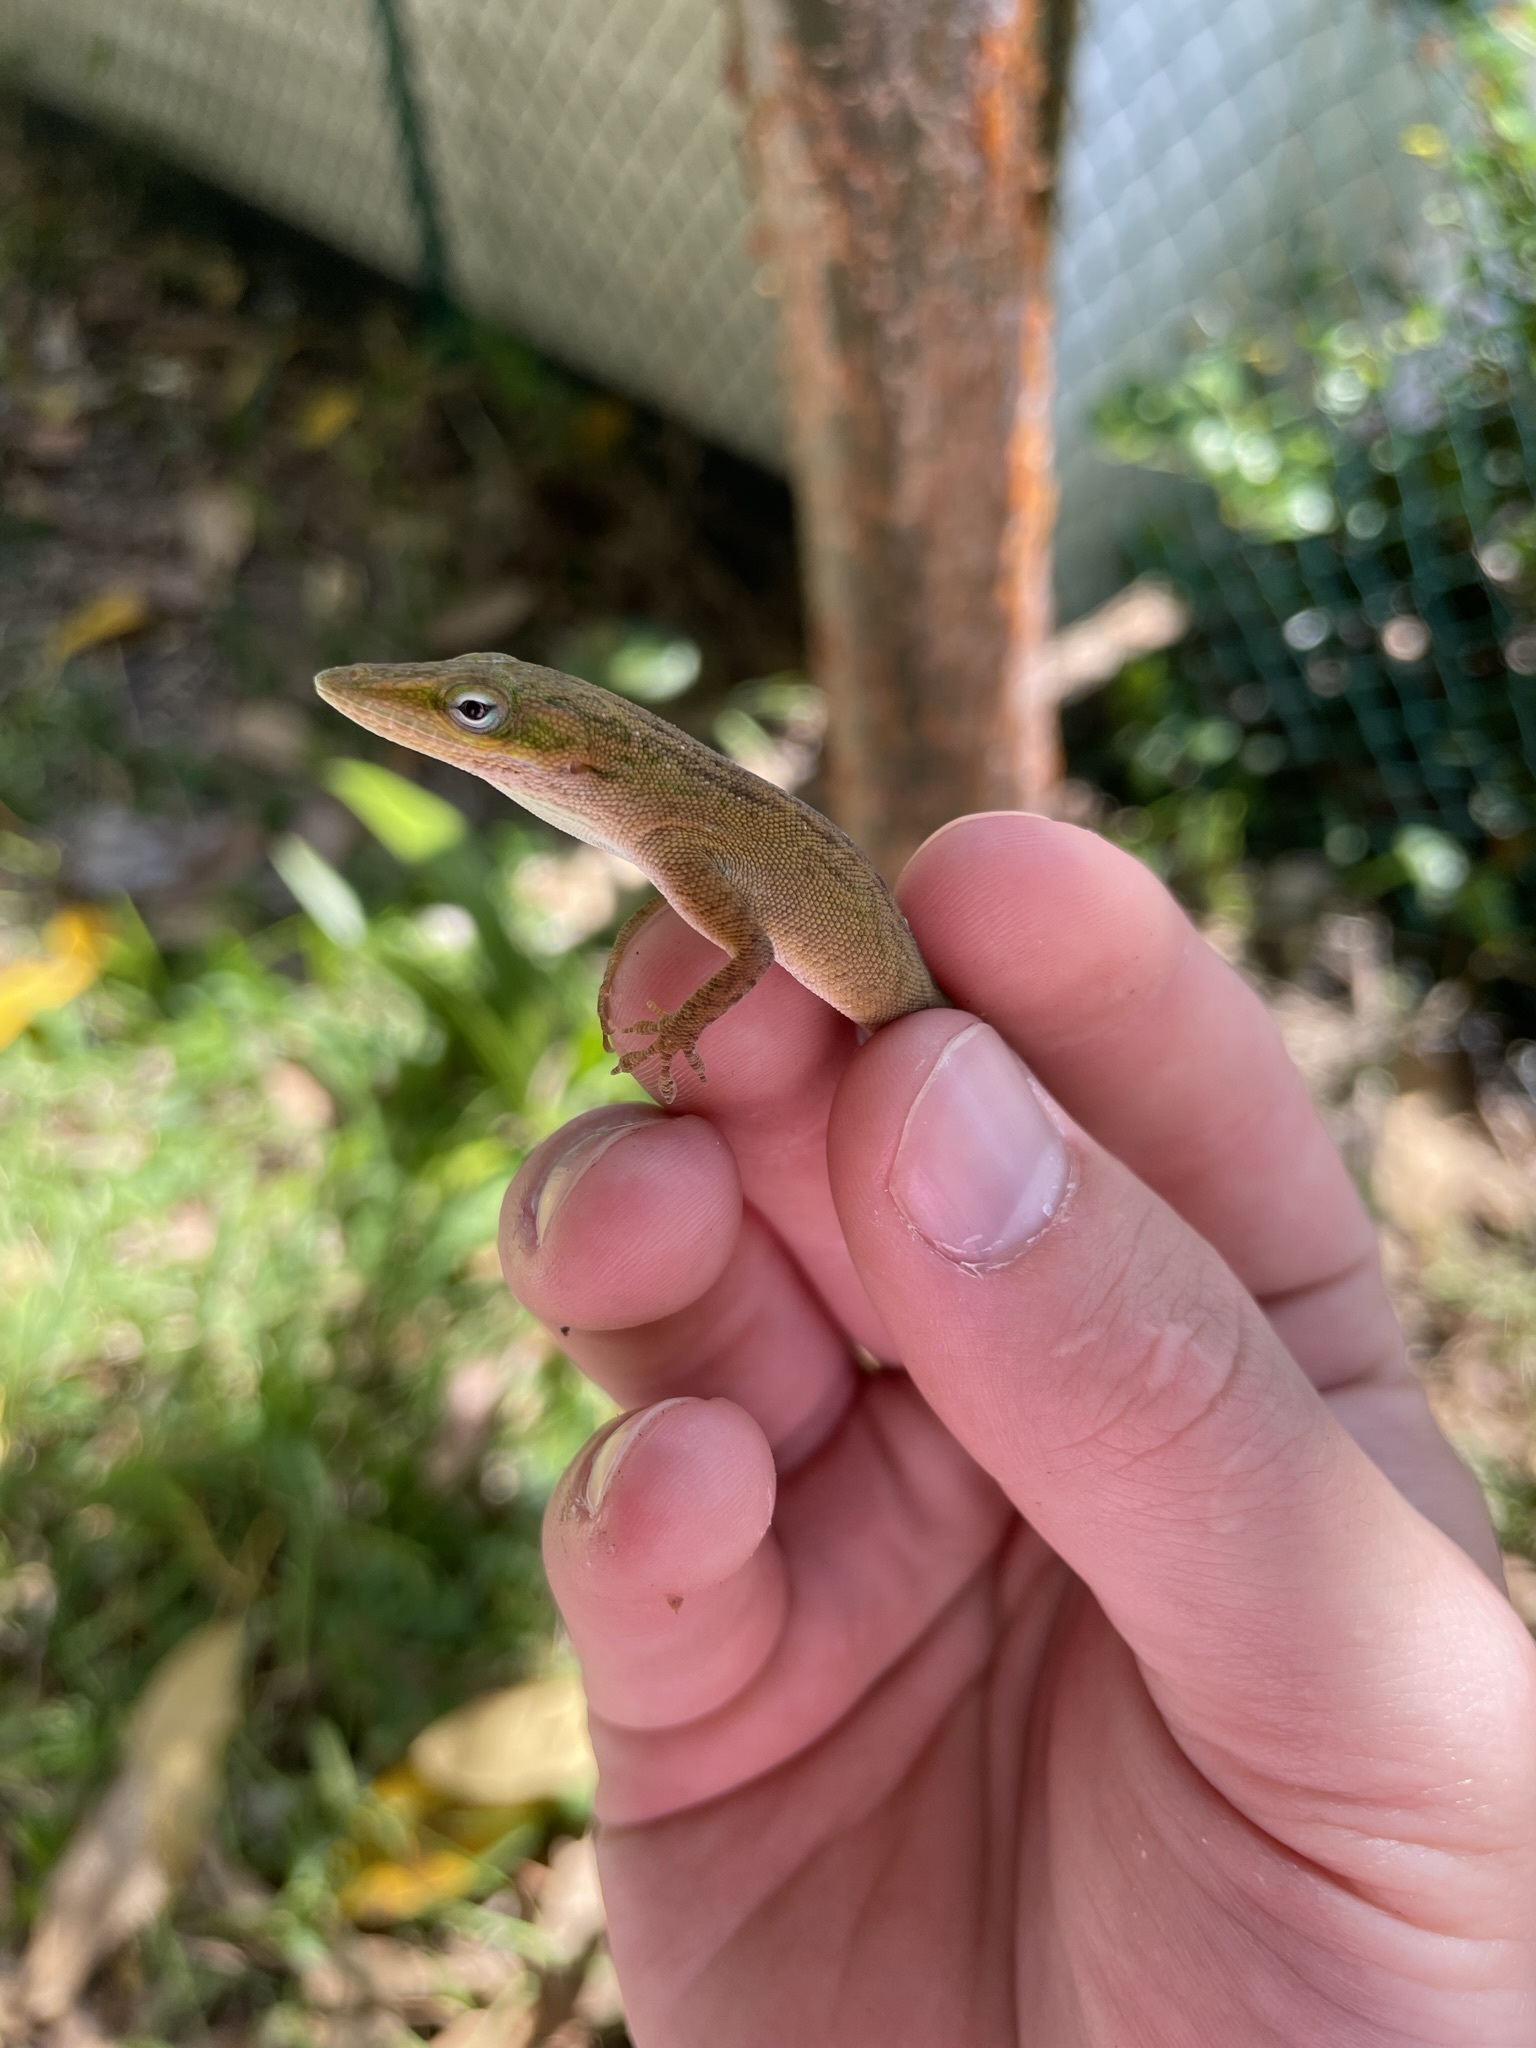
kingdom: Animalia
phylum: Chordata
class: Squamata
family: Dactyloidae
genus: Anolis
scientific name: Anolis carolinensis
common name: Green anole
